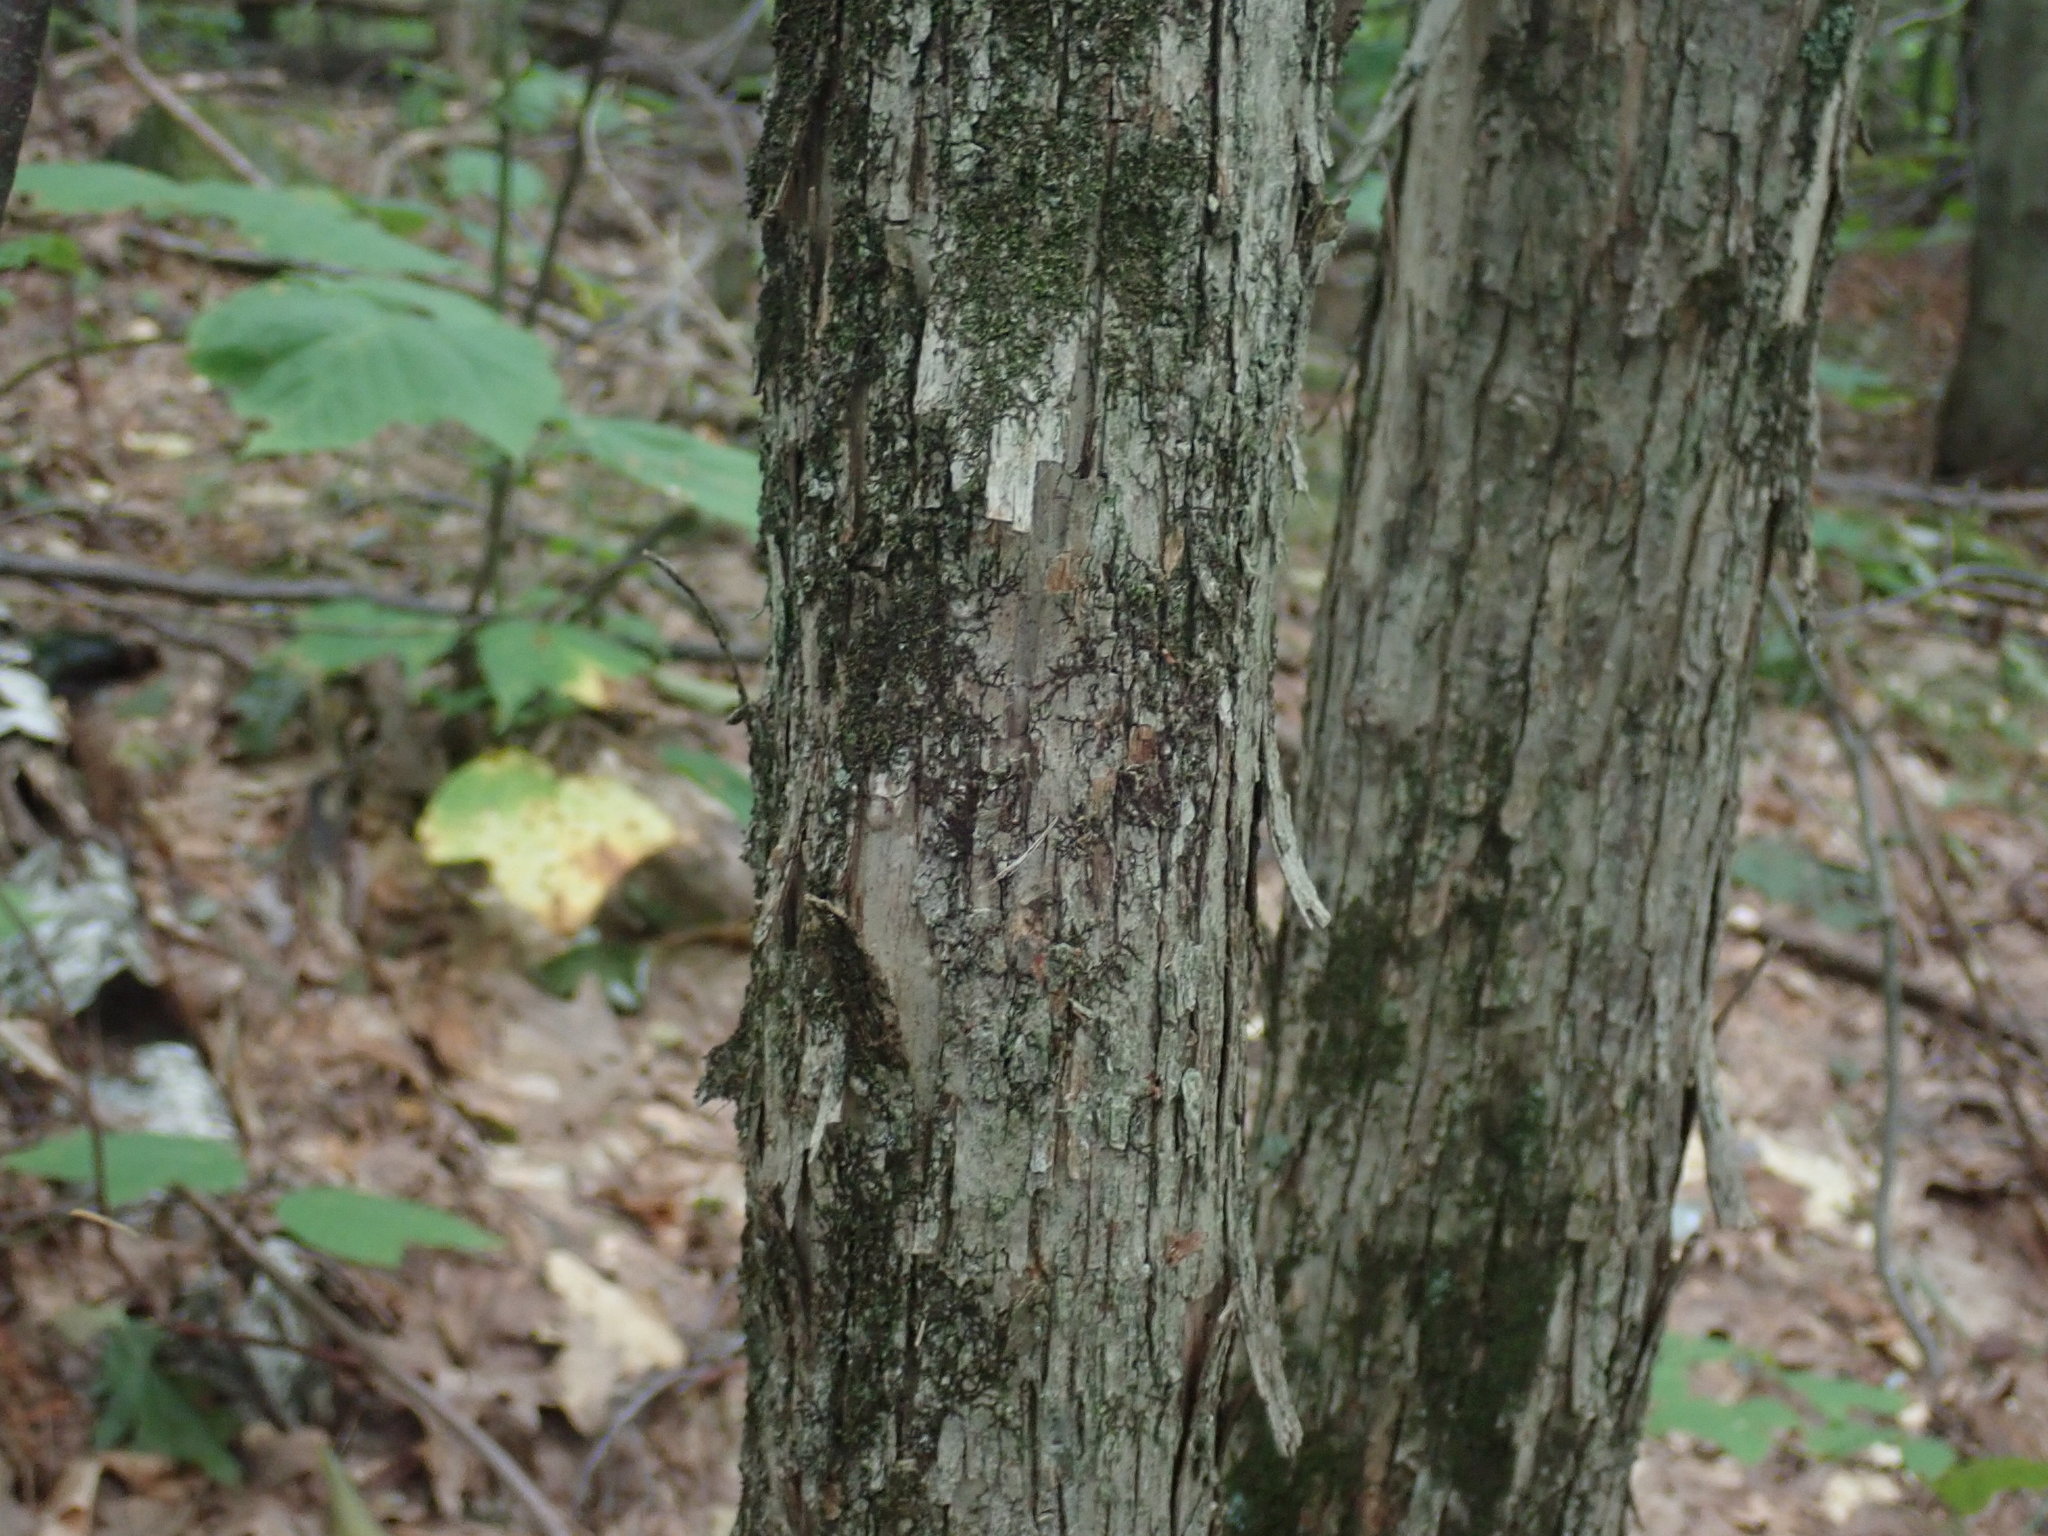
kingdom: Plantae
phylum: Tracheophyta
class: Magnoliopsida
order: Fagales
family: Betulaceae
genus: Ostrya
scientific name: Ostrya virginiana
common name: Ironwood
